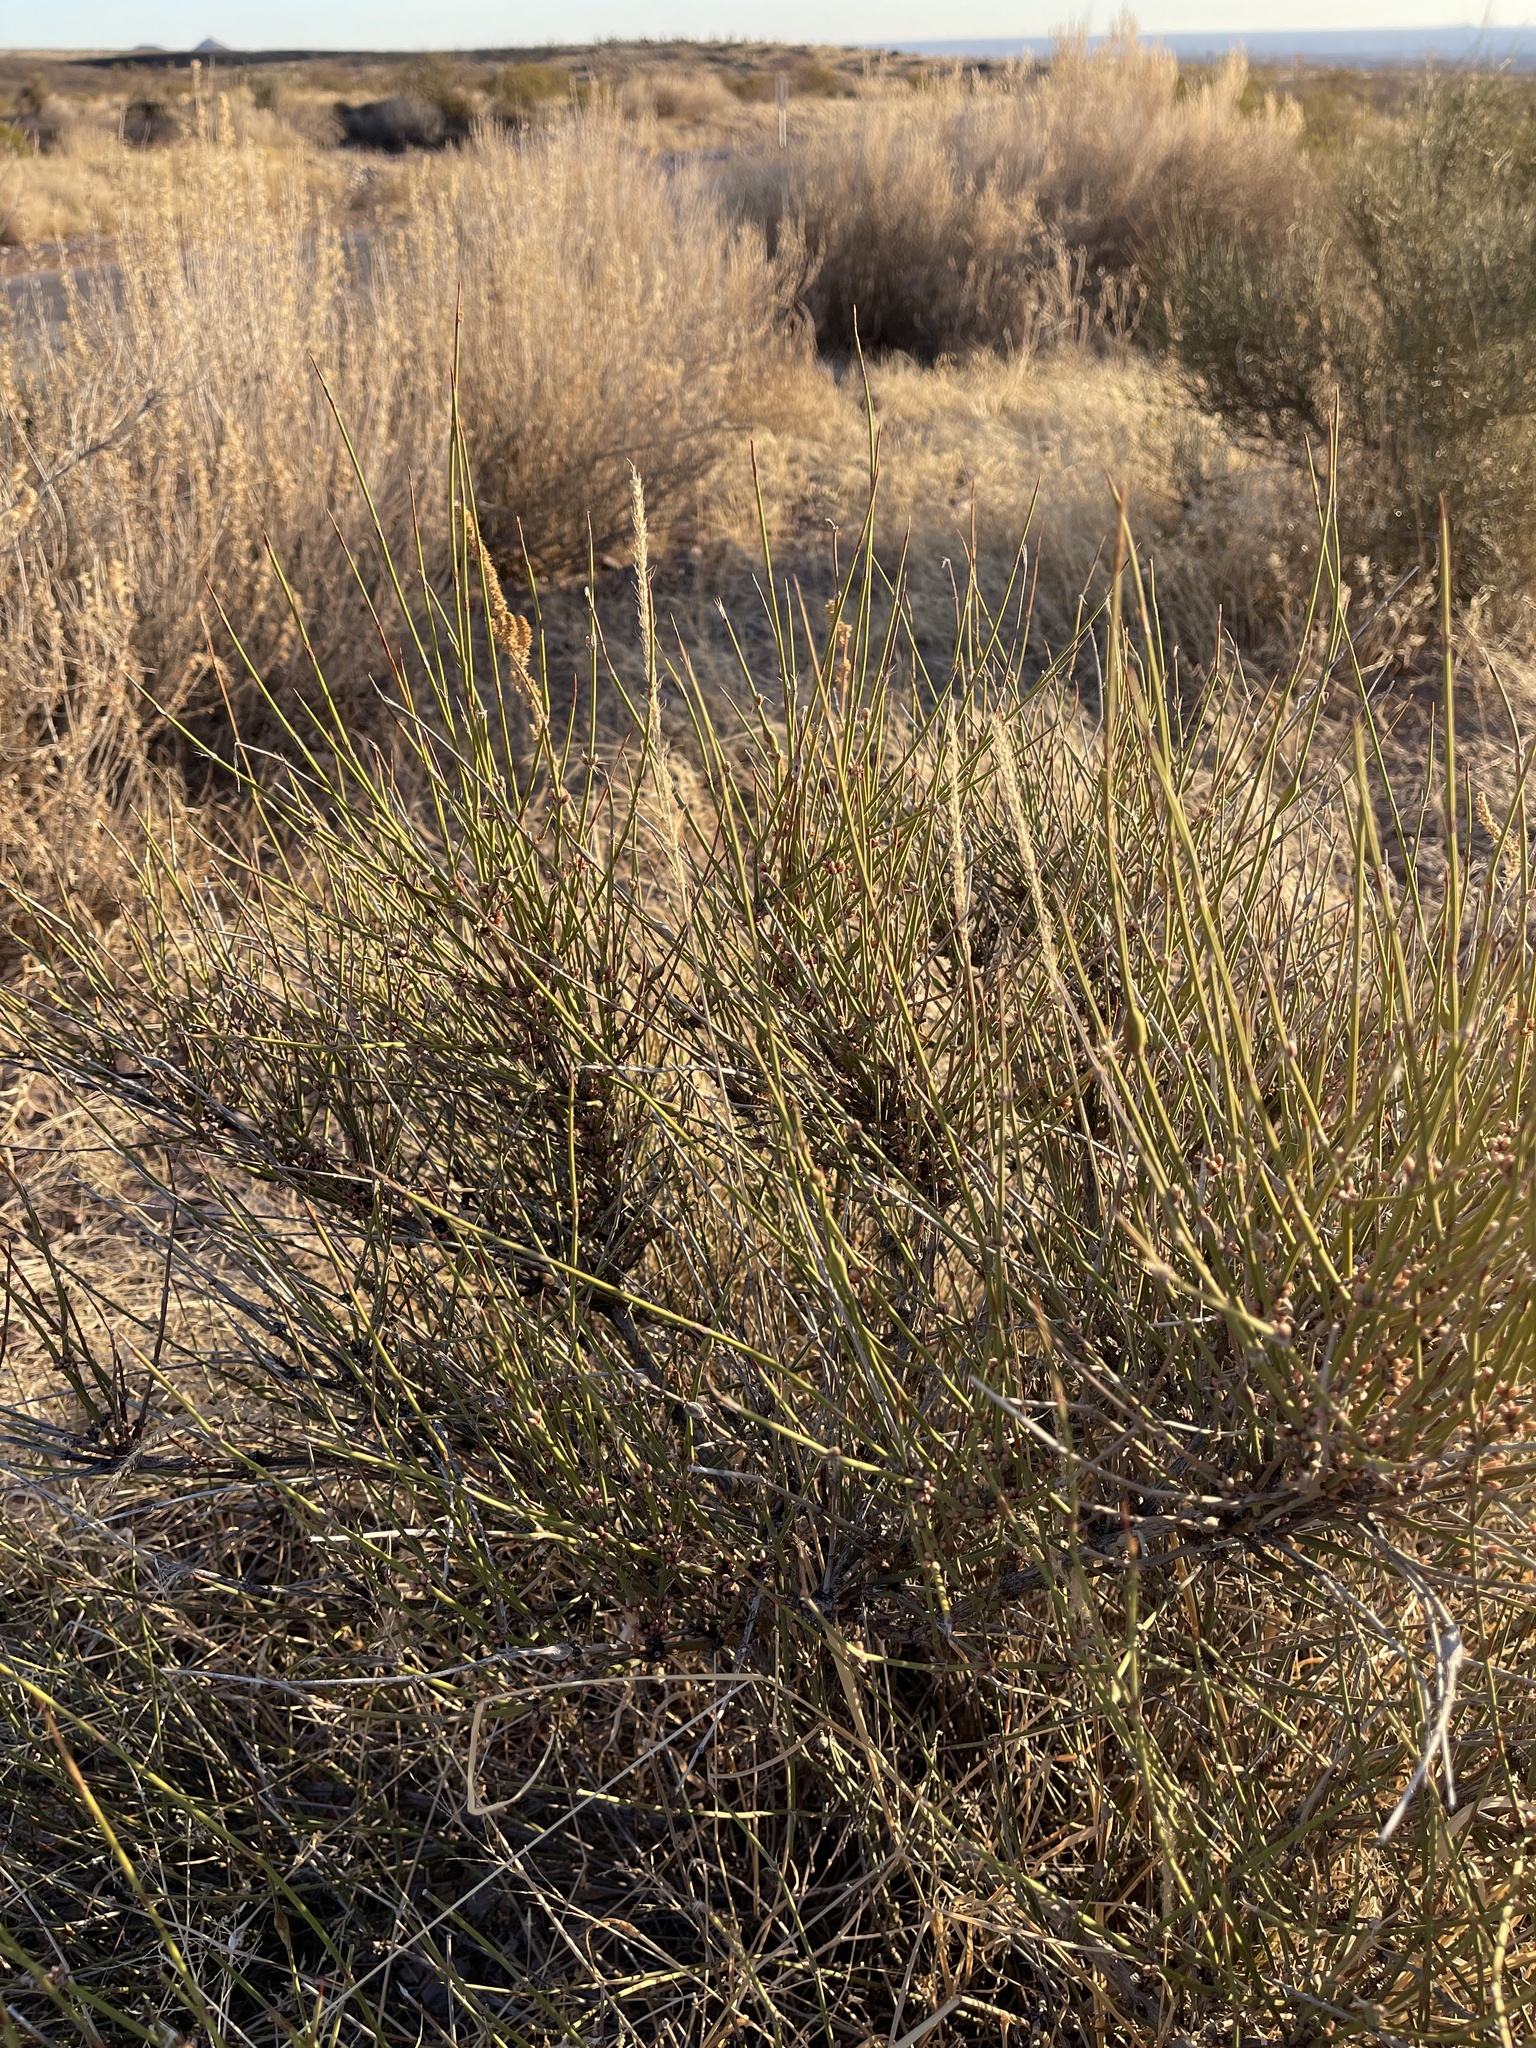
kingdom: Plantae
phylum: Tracheophyta
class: Gnetopsida
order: Ephedrales
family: Ephedraceae
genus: Ephedra
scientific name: Ephedra trifurca
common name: Mexican-tea
